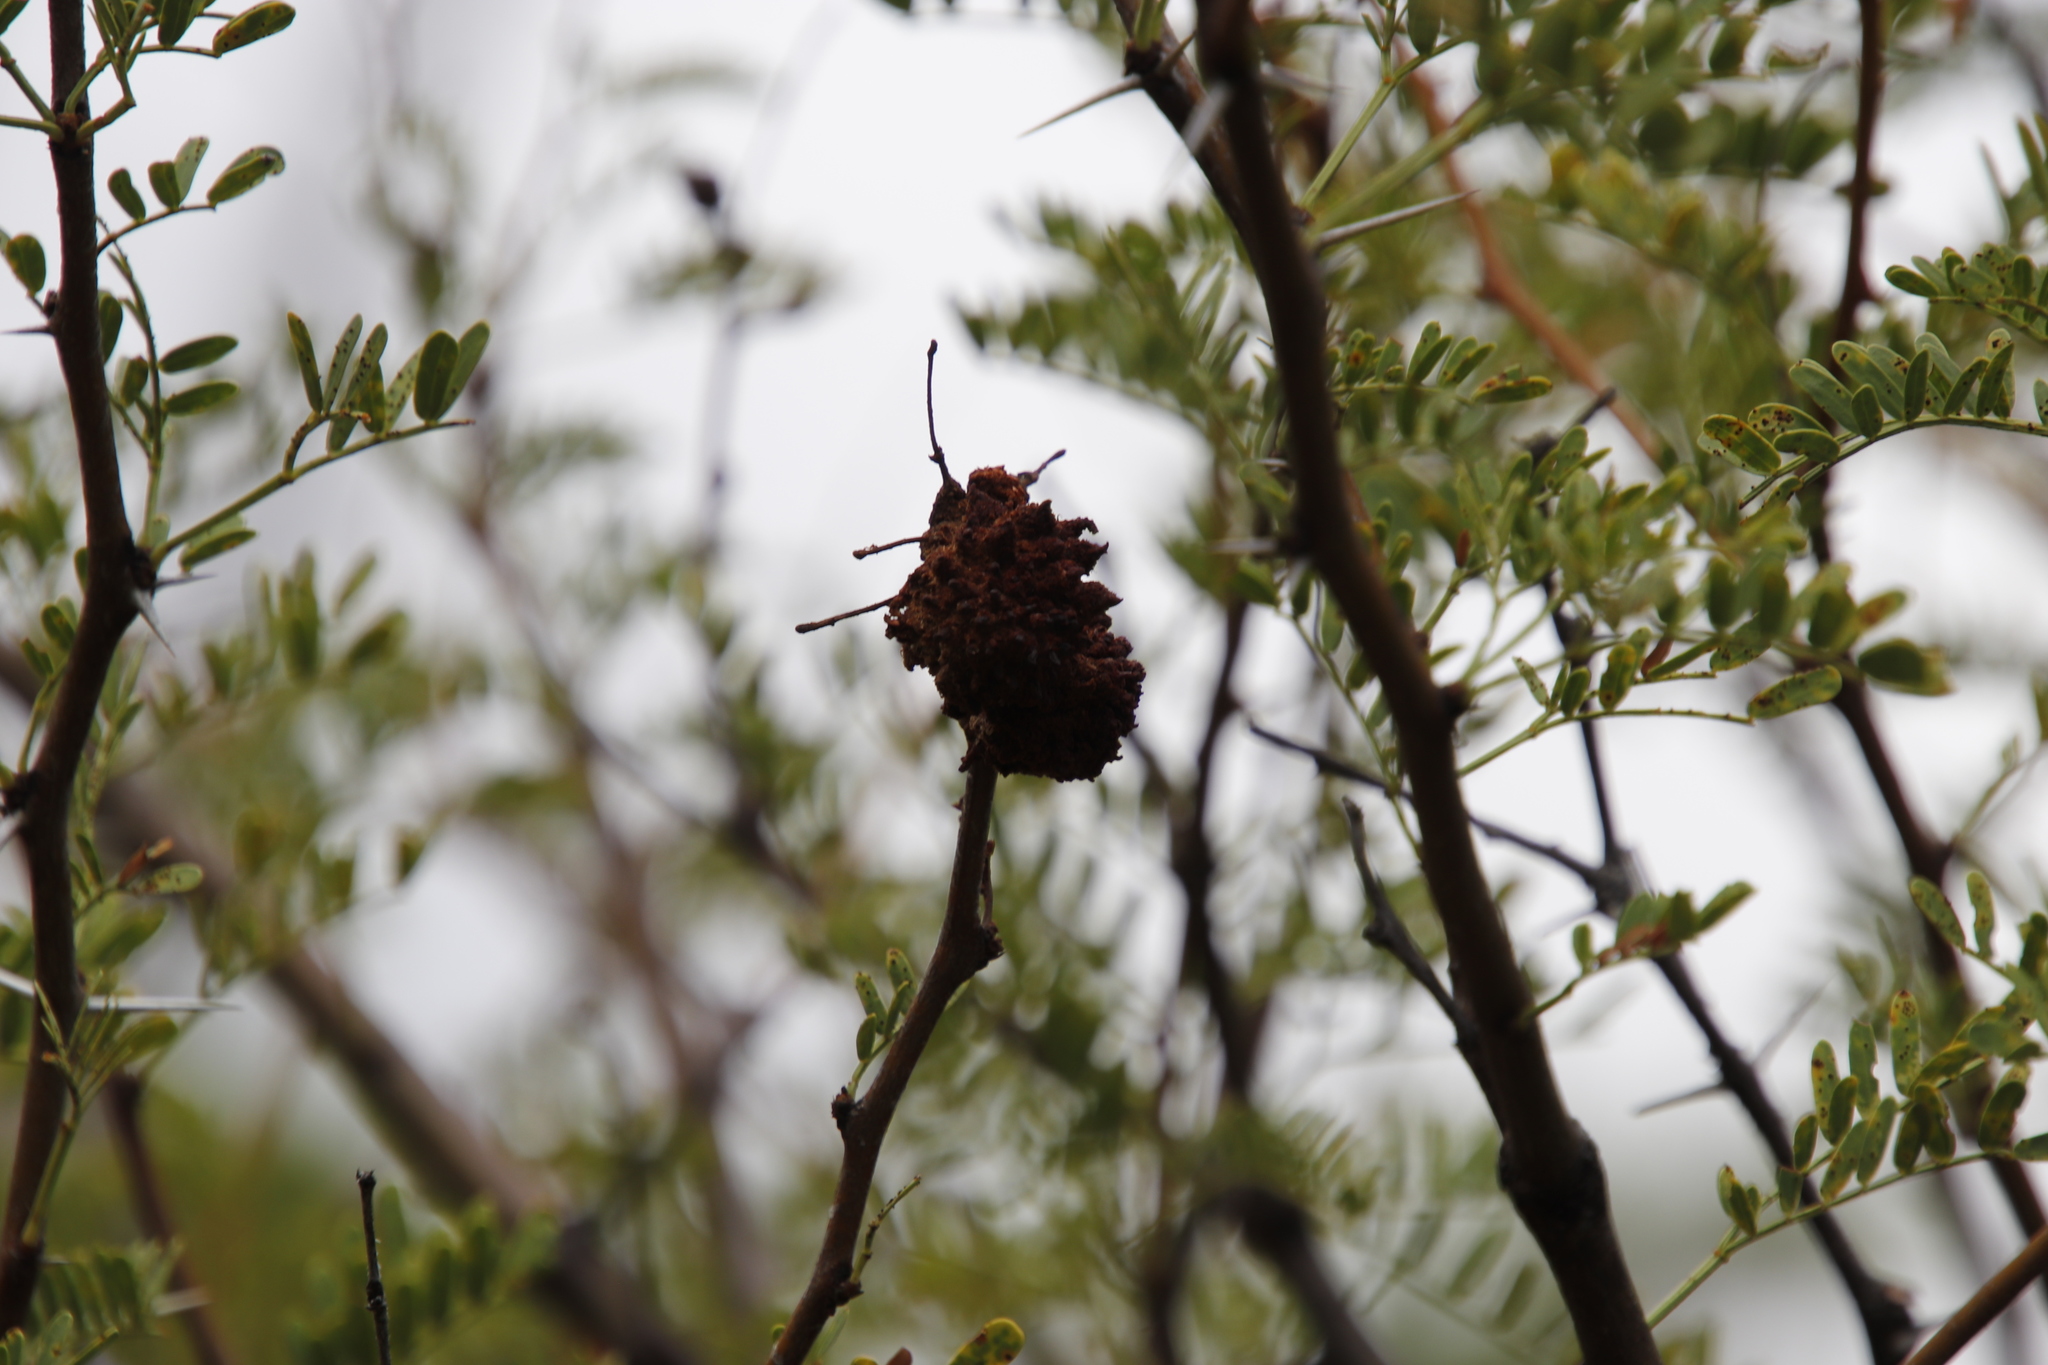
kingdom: Fungi
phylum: Basidiomycota
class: Pucciniomycetes
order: Pucciniales
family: Raveneliaceae
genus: Cephalotelium
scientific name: Cephalotelium macowanianum
